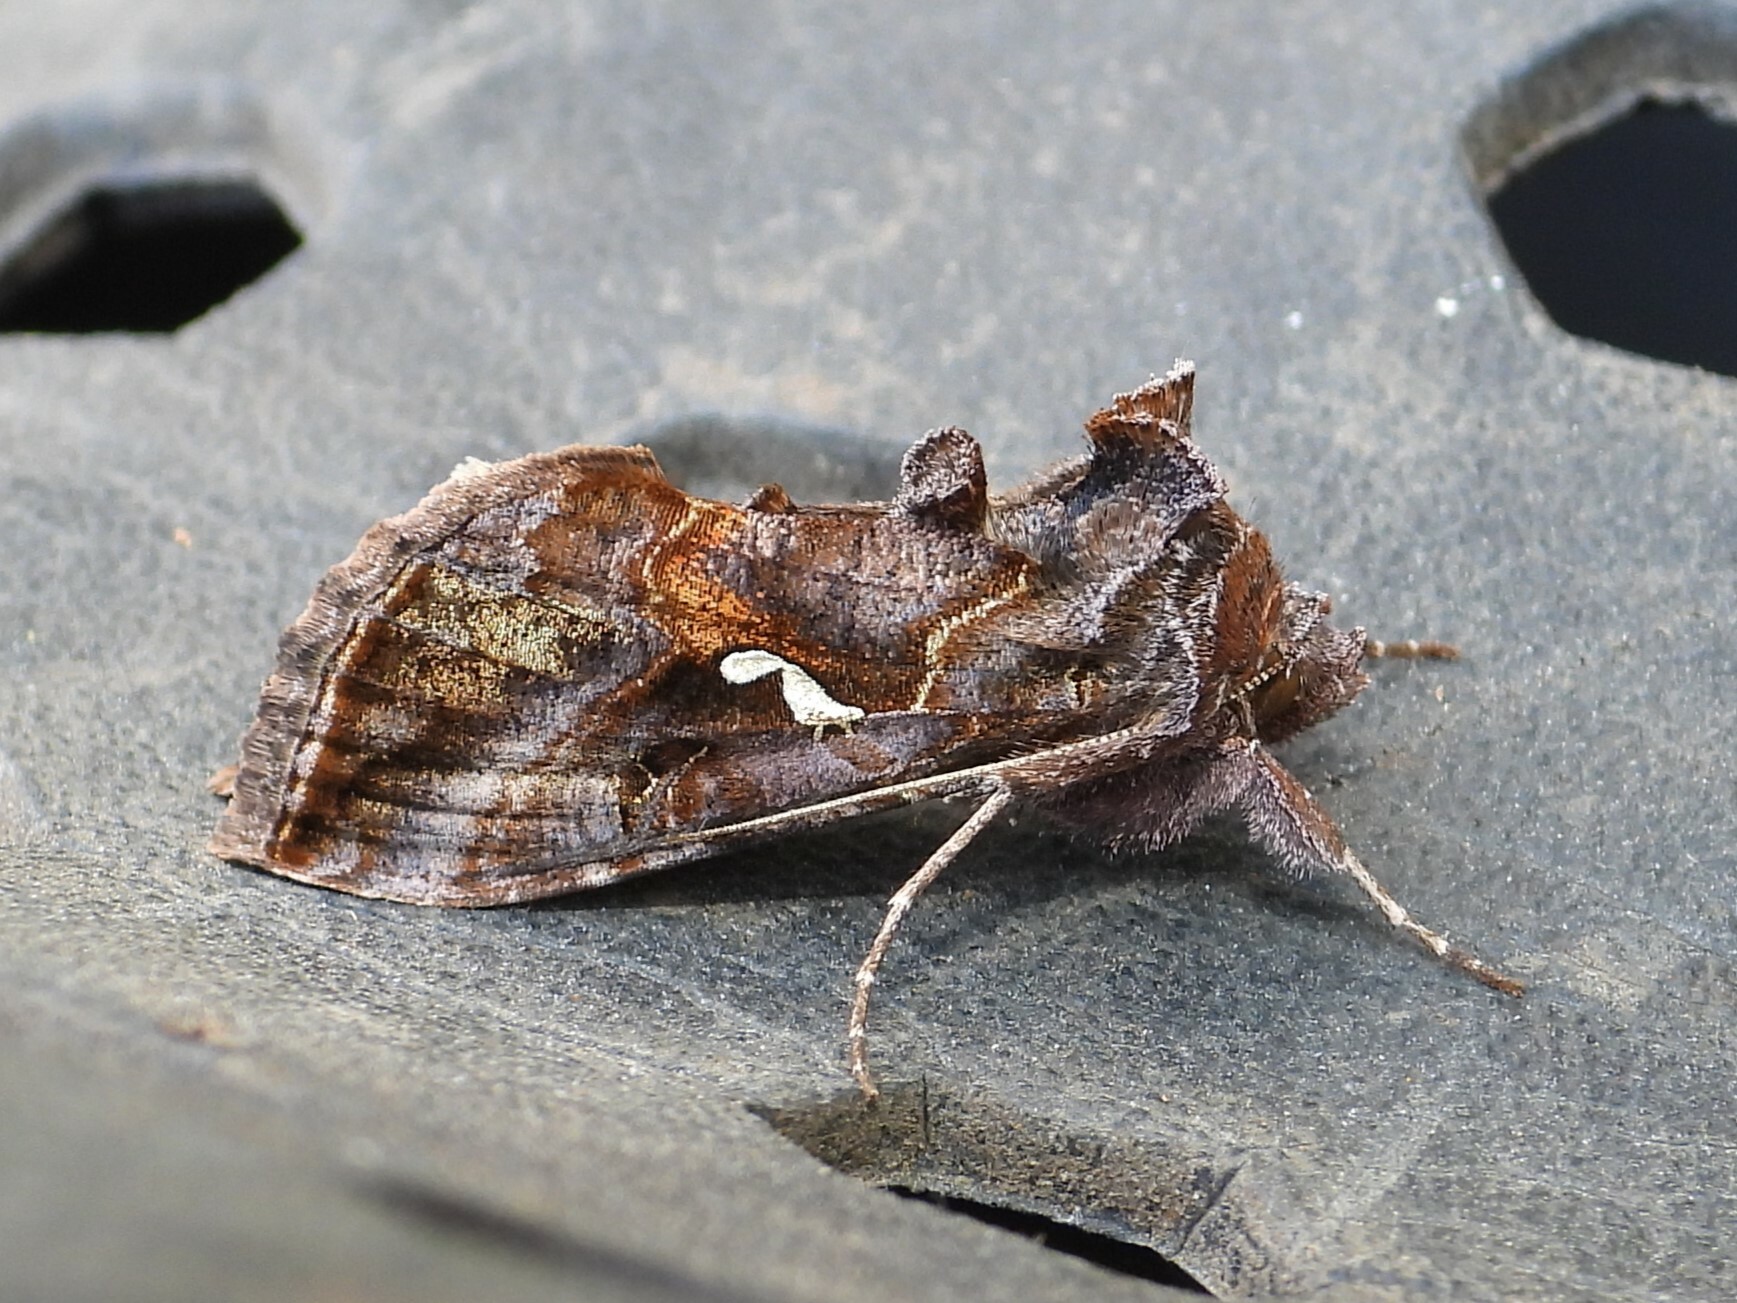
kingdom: Animalia
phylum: Arthropoda
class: Insecta
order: Lepidoptera
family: Noctuidae
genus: Autographa
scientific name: Autographa precationis
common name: Common looper moth
